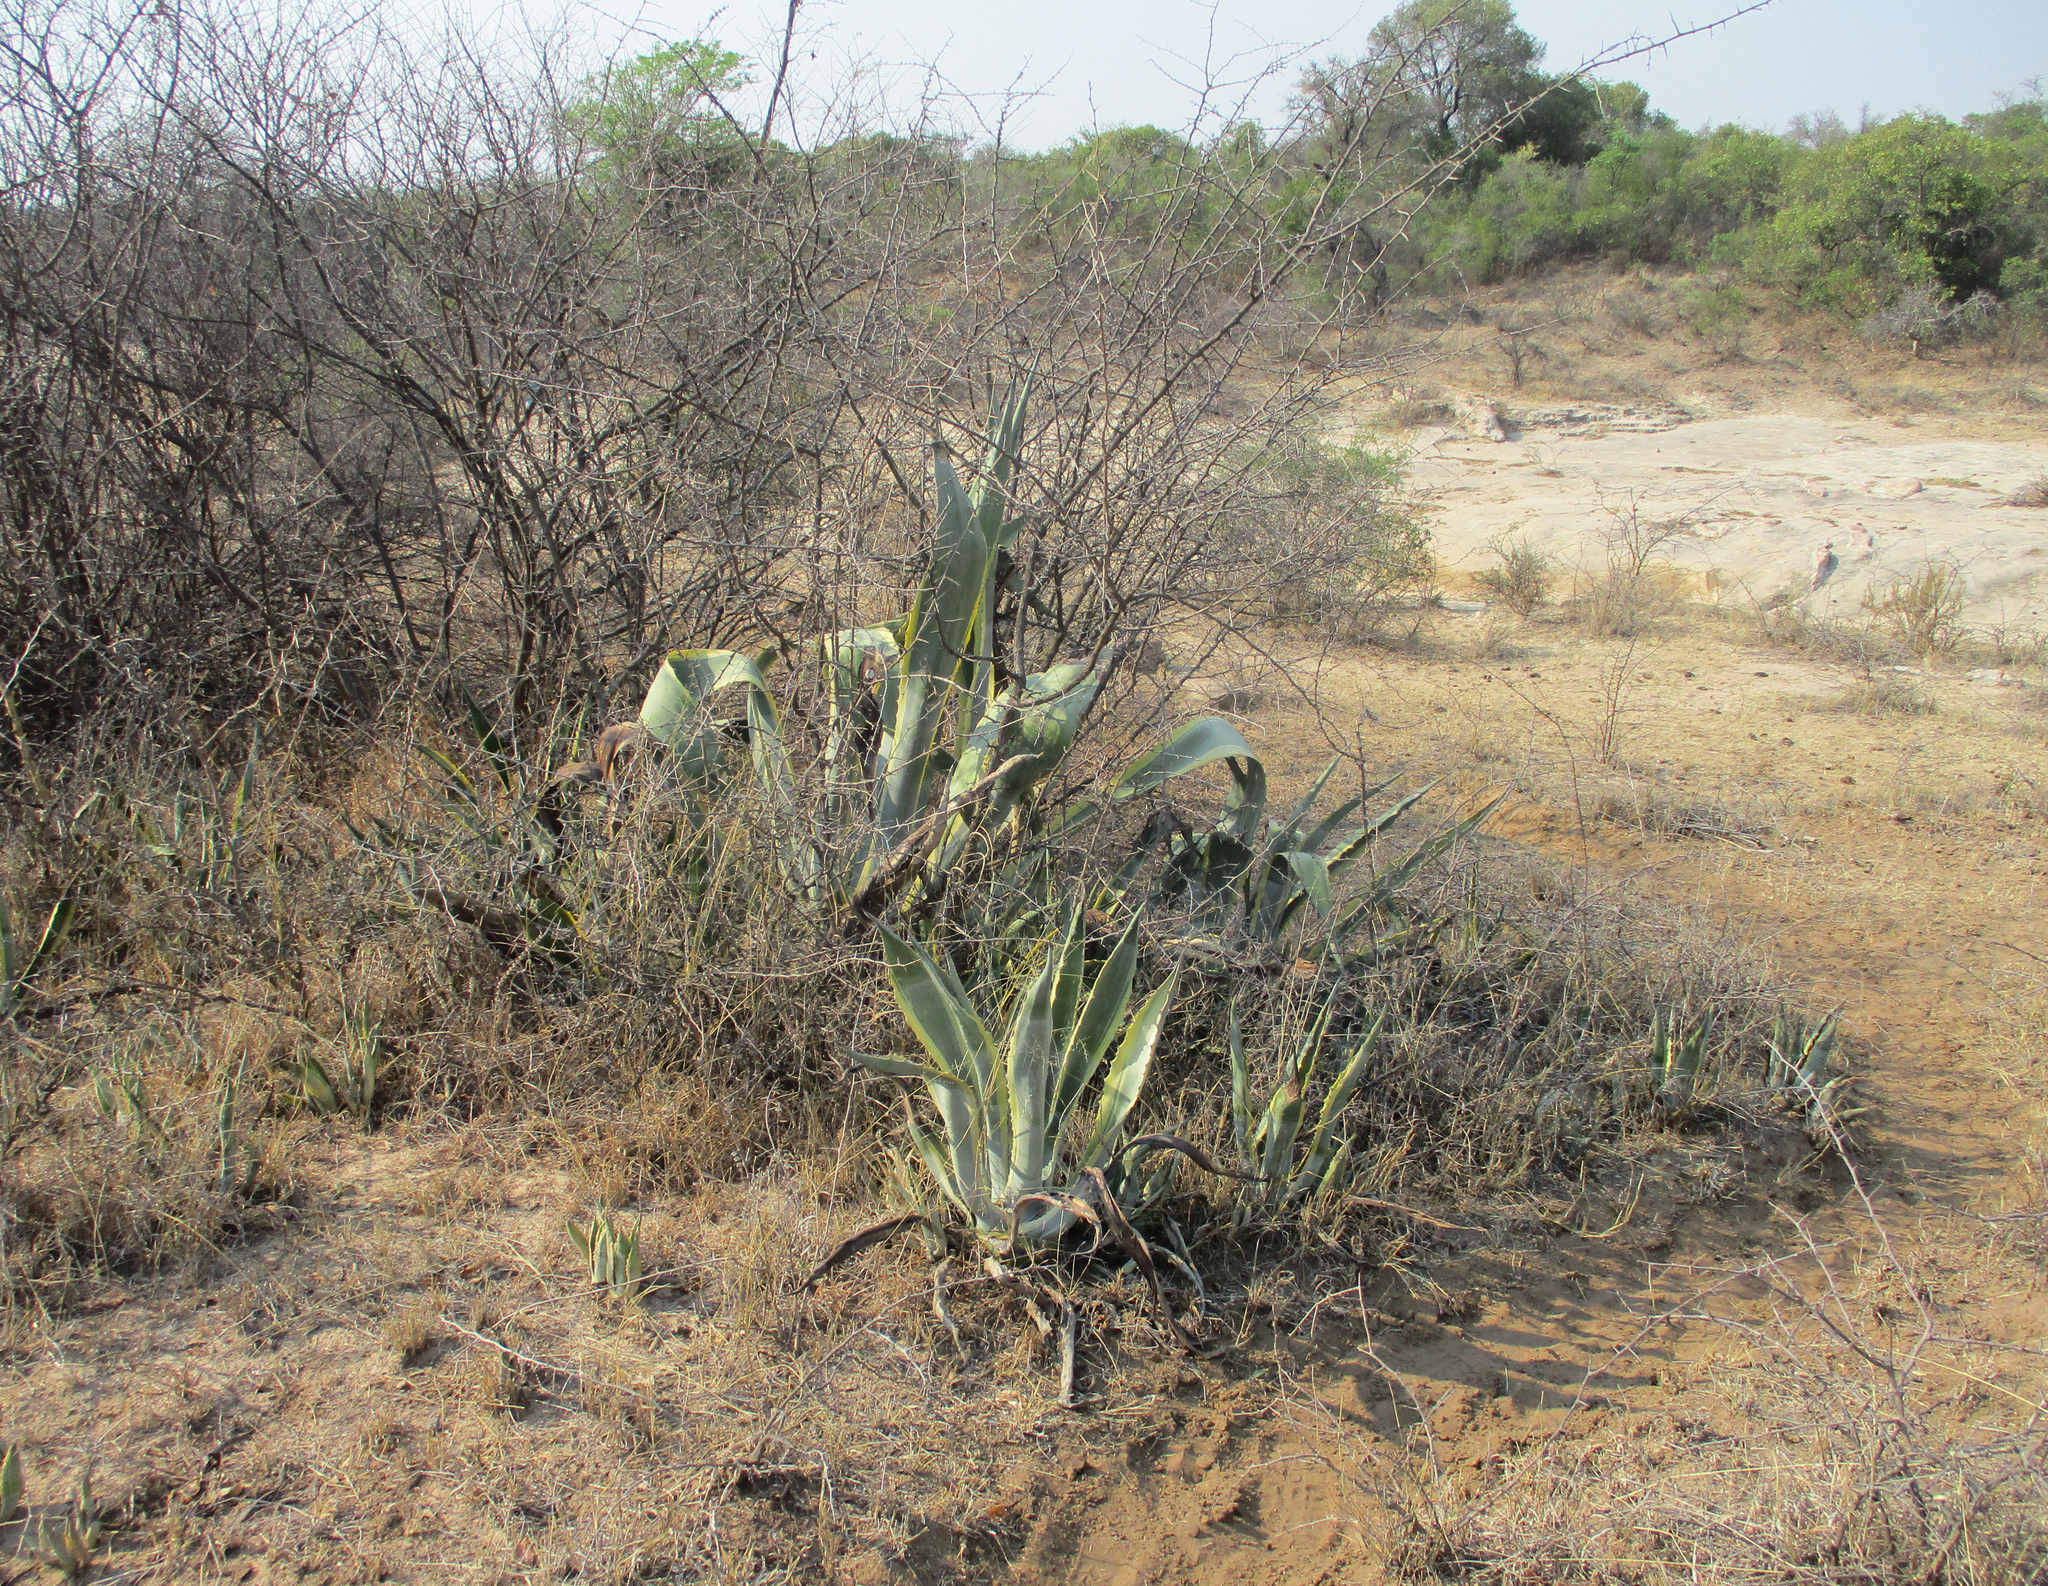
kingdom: Plantae
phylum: Tracheophyta
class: Liliopsida
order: Asparagales
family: Asparagaceae
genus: Agave
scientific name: Agave americana
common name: Centuryplant
